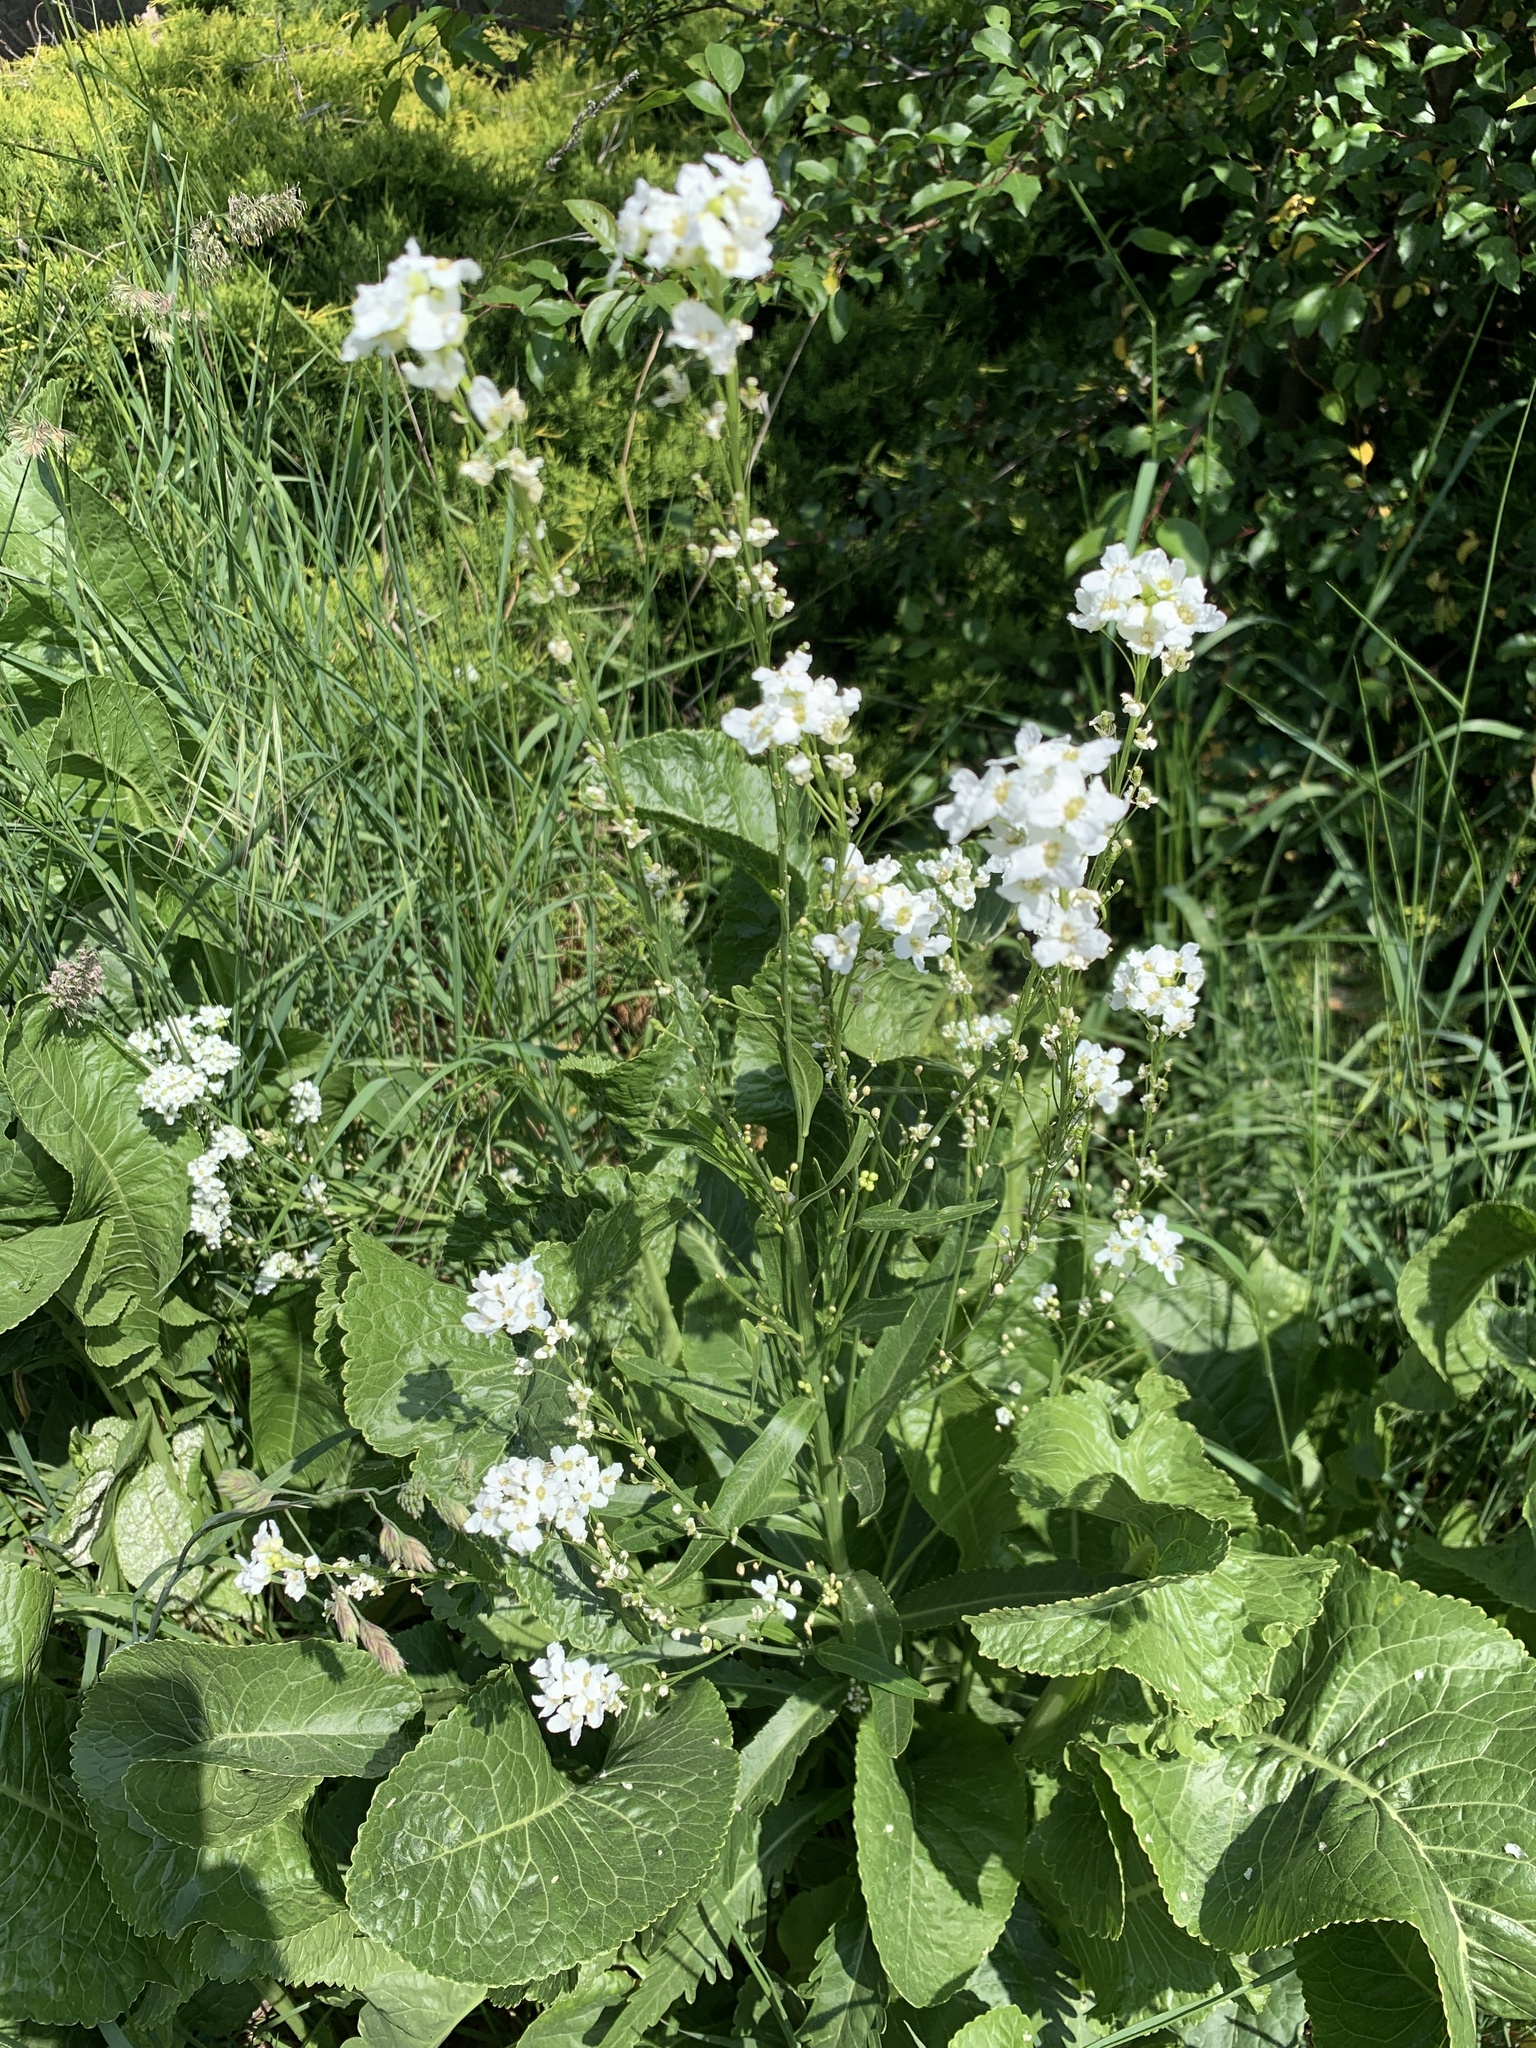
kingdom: Plantae
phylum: Tracheophyta
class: Magnoliopsida
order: Brassicales
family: Brassicaceae
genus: Armoracia
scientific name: Armoracia rusticana
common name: Horseradish
